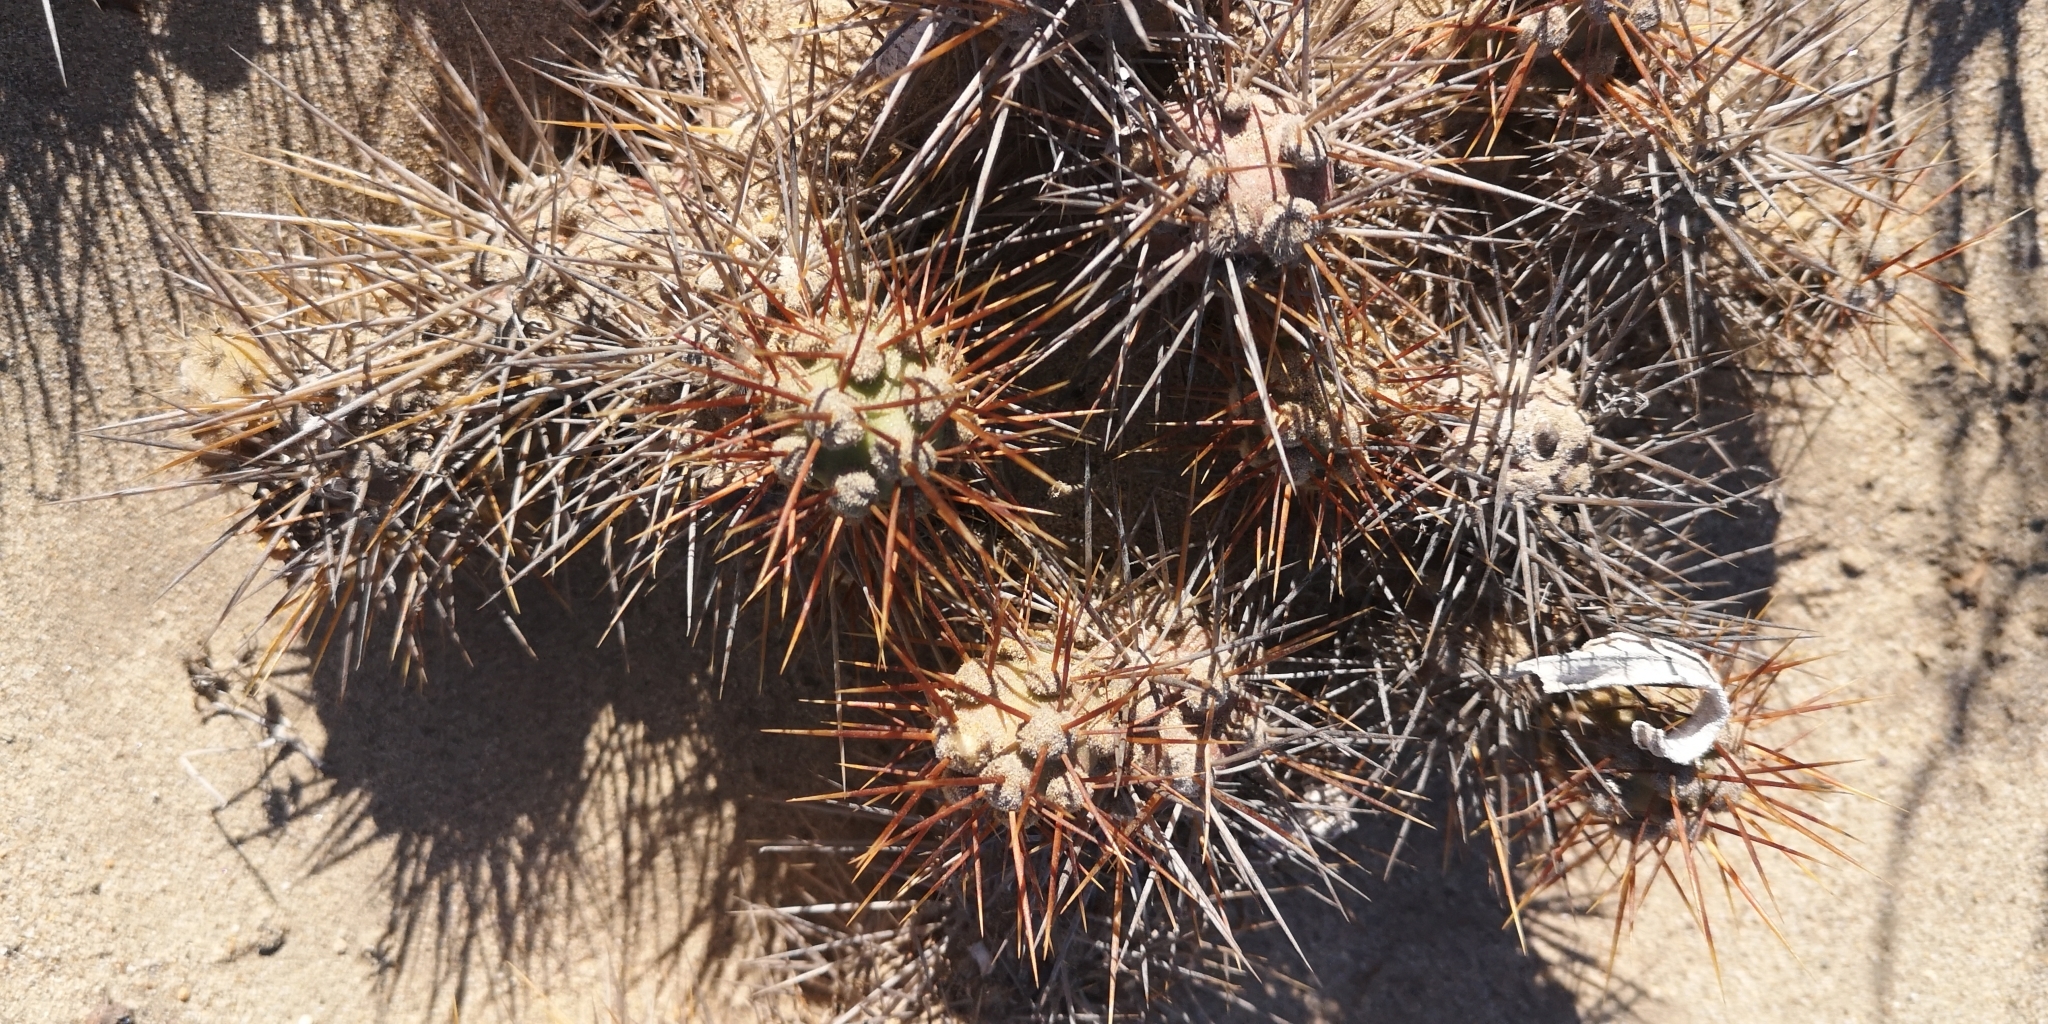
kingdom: Plantae
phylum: Tracheophyta
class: Magnoliopsida
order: Caryophyllales
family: Cactaceae
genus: Cumulopuntia
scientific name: Cumulopuntia leucophaea
